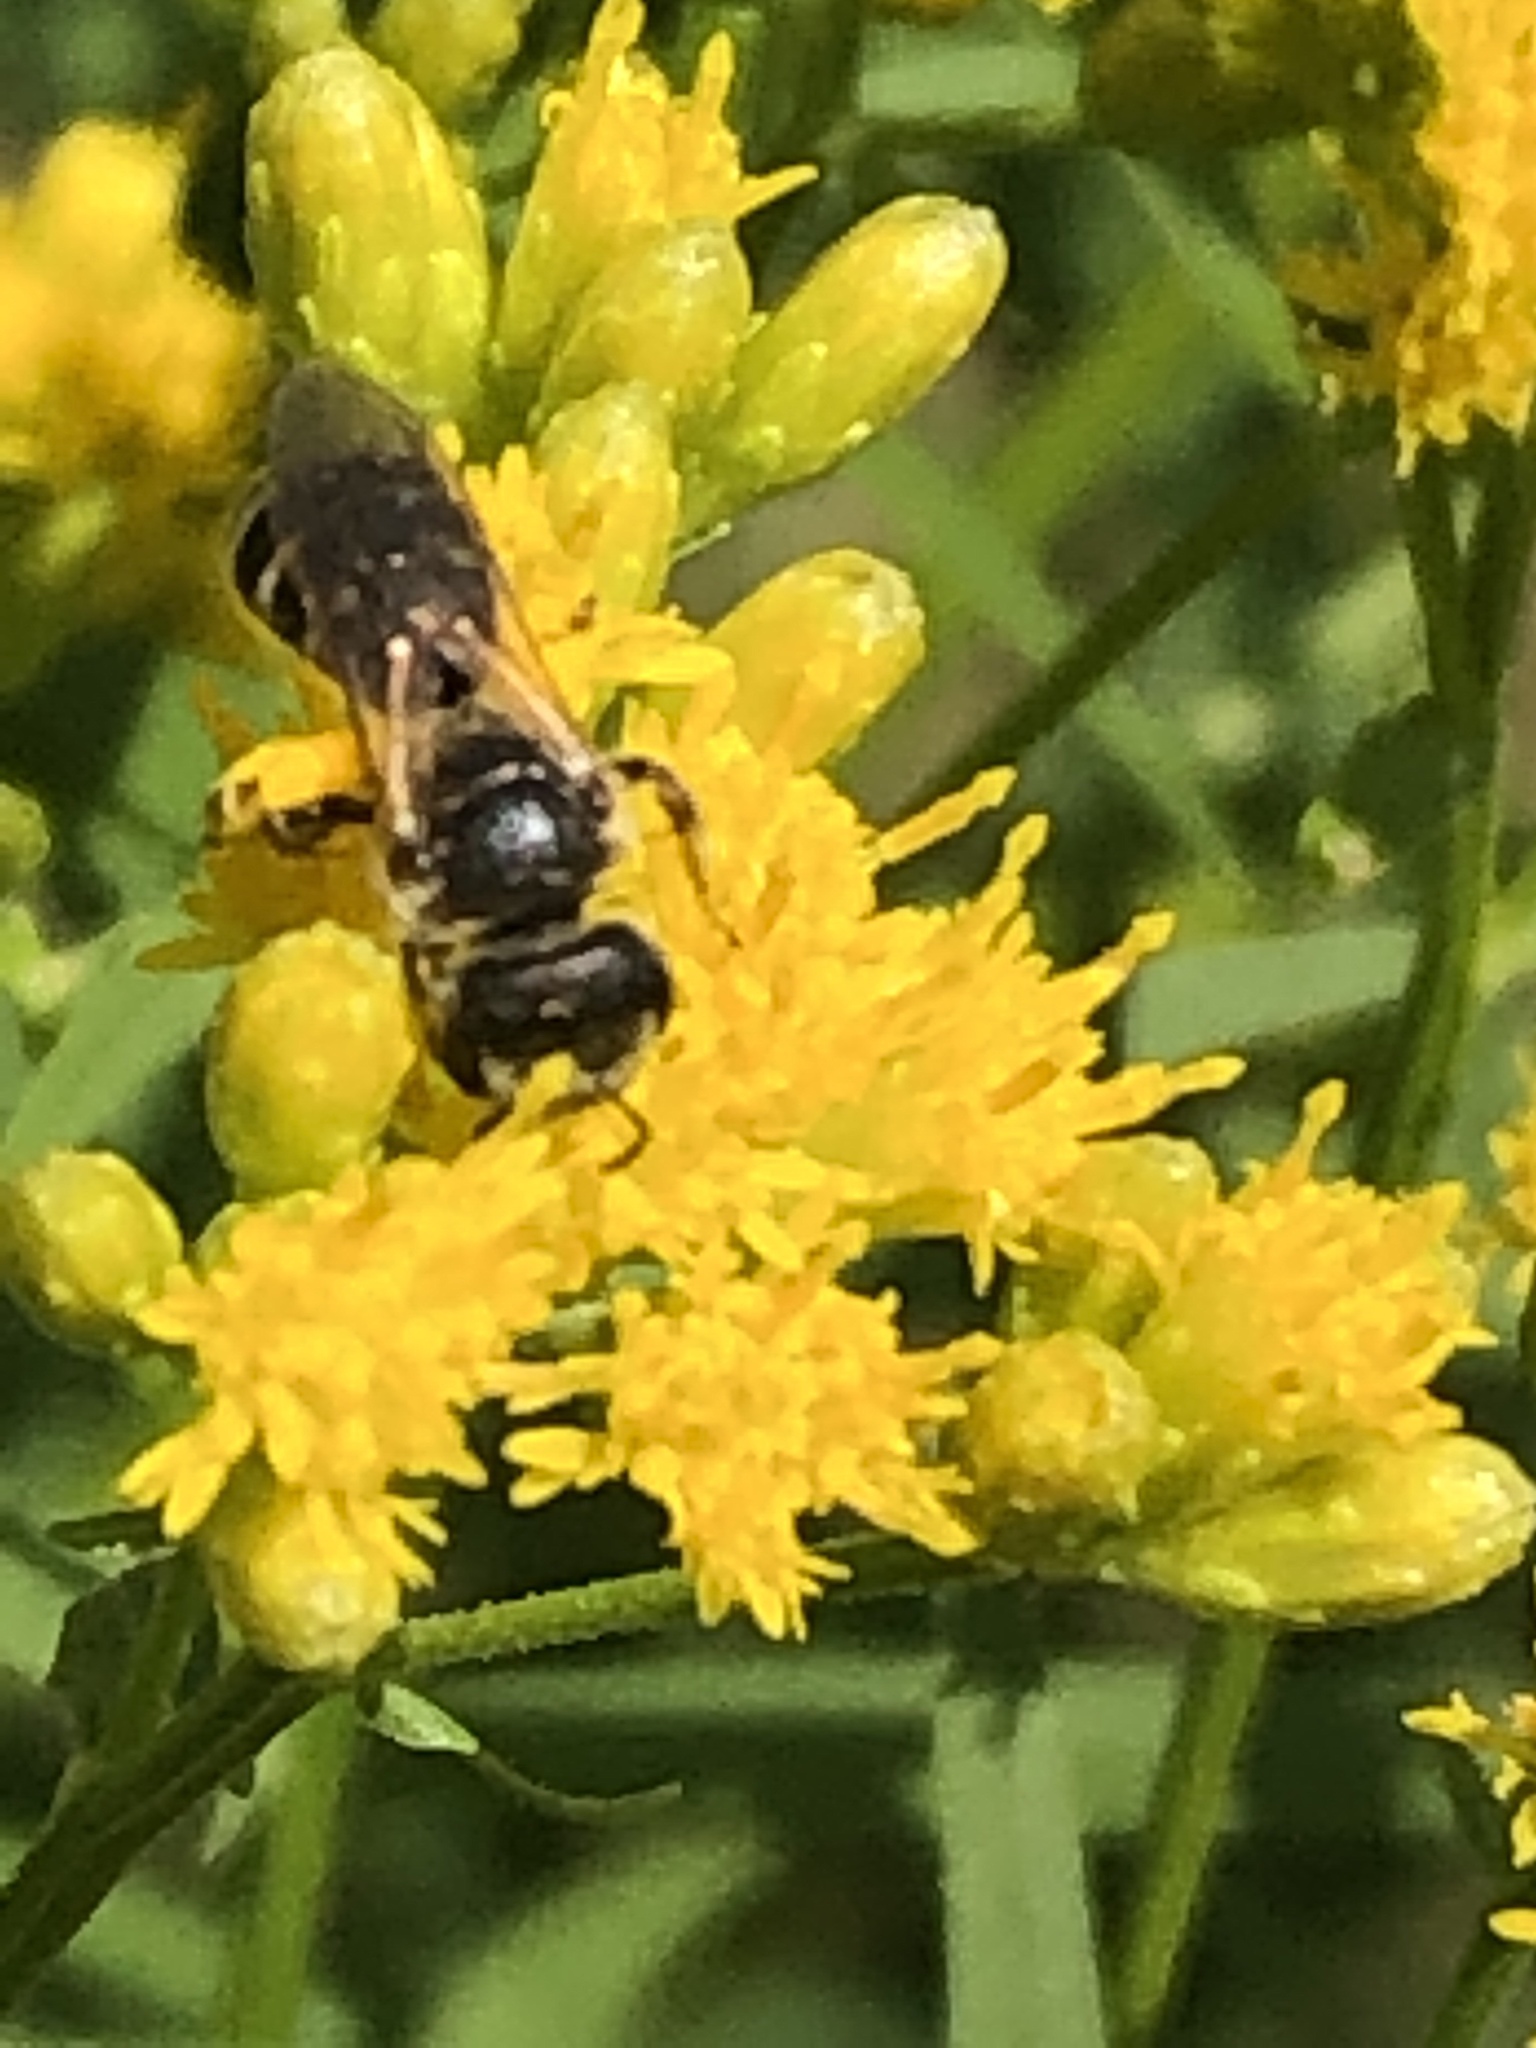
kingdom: Animalia
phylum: Arthropoda
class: Insecta
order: Hymenoptera
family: Halictidae
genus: Halictus
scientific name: Halictus ligatus
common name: Ligated furrow bee
